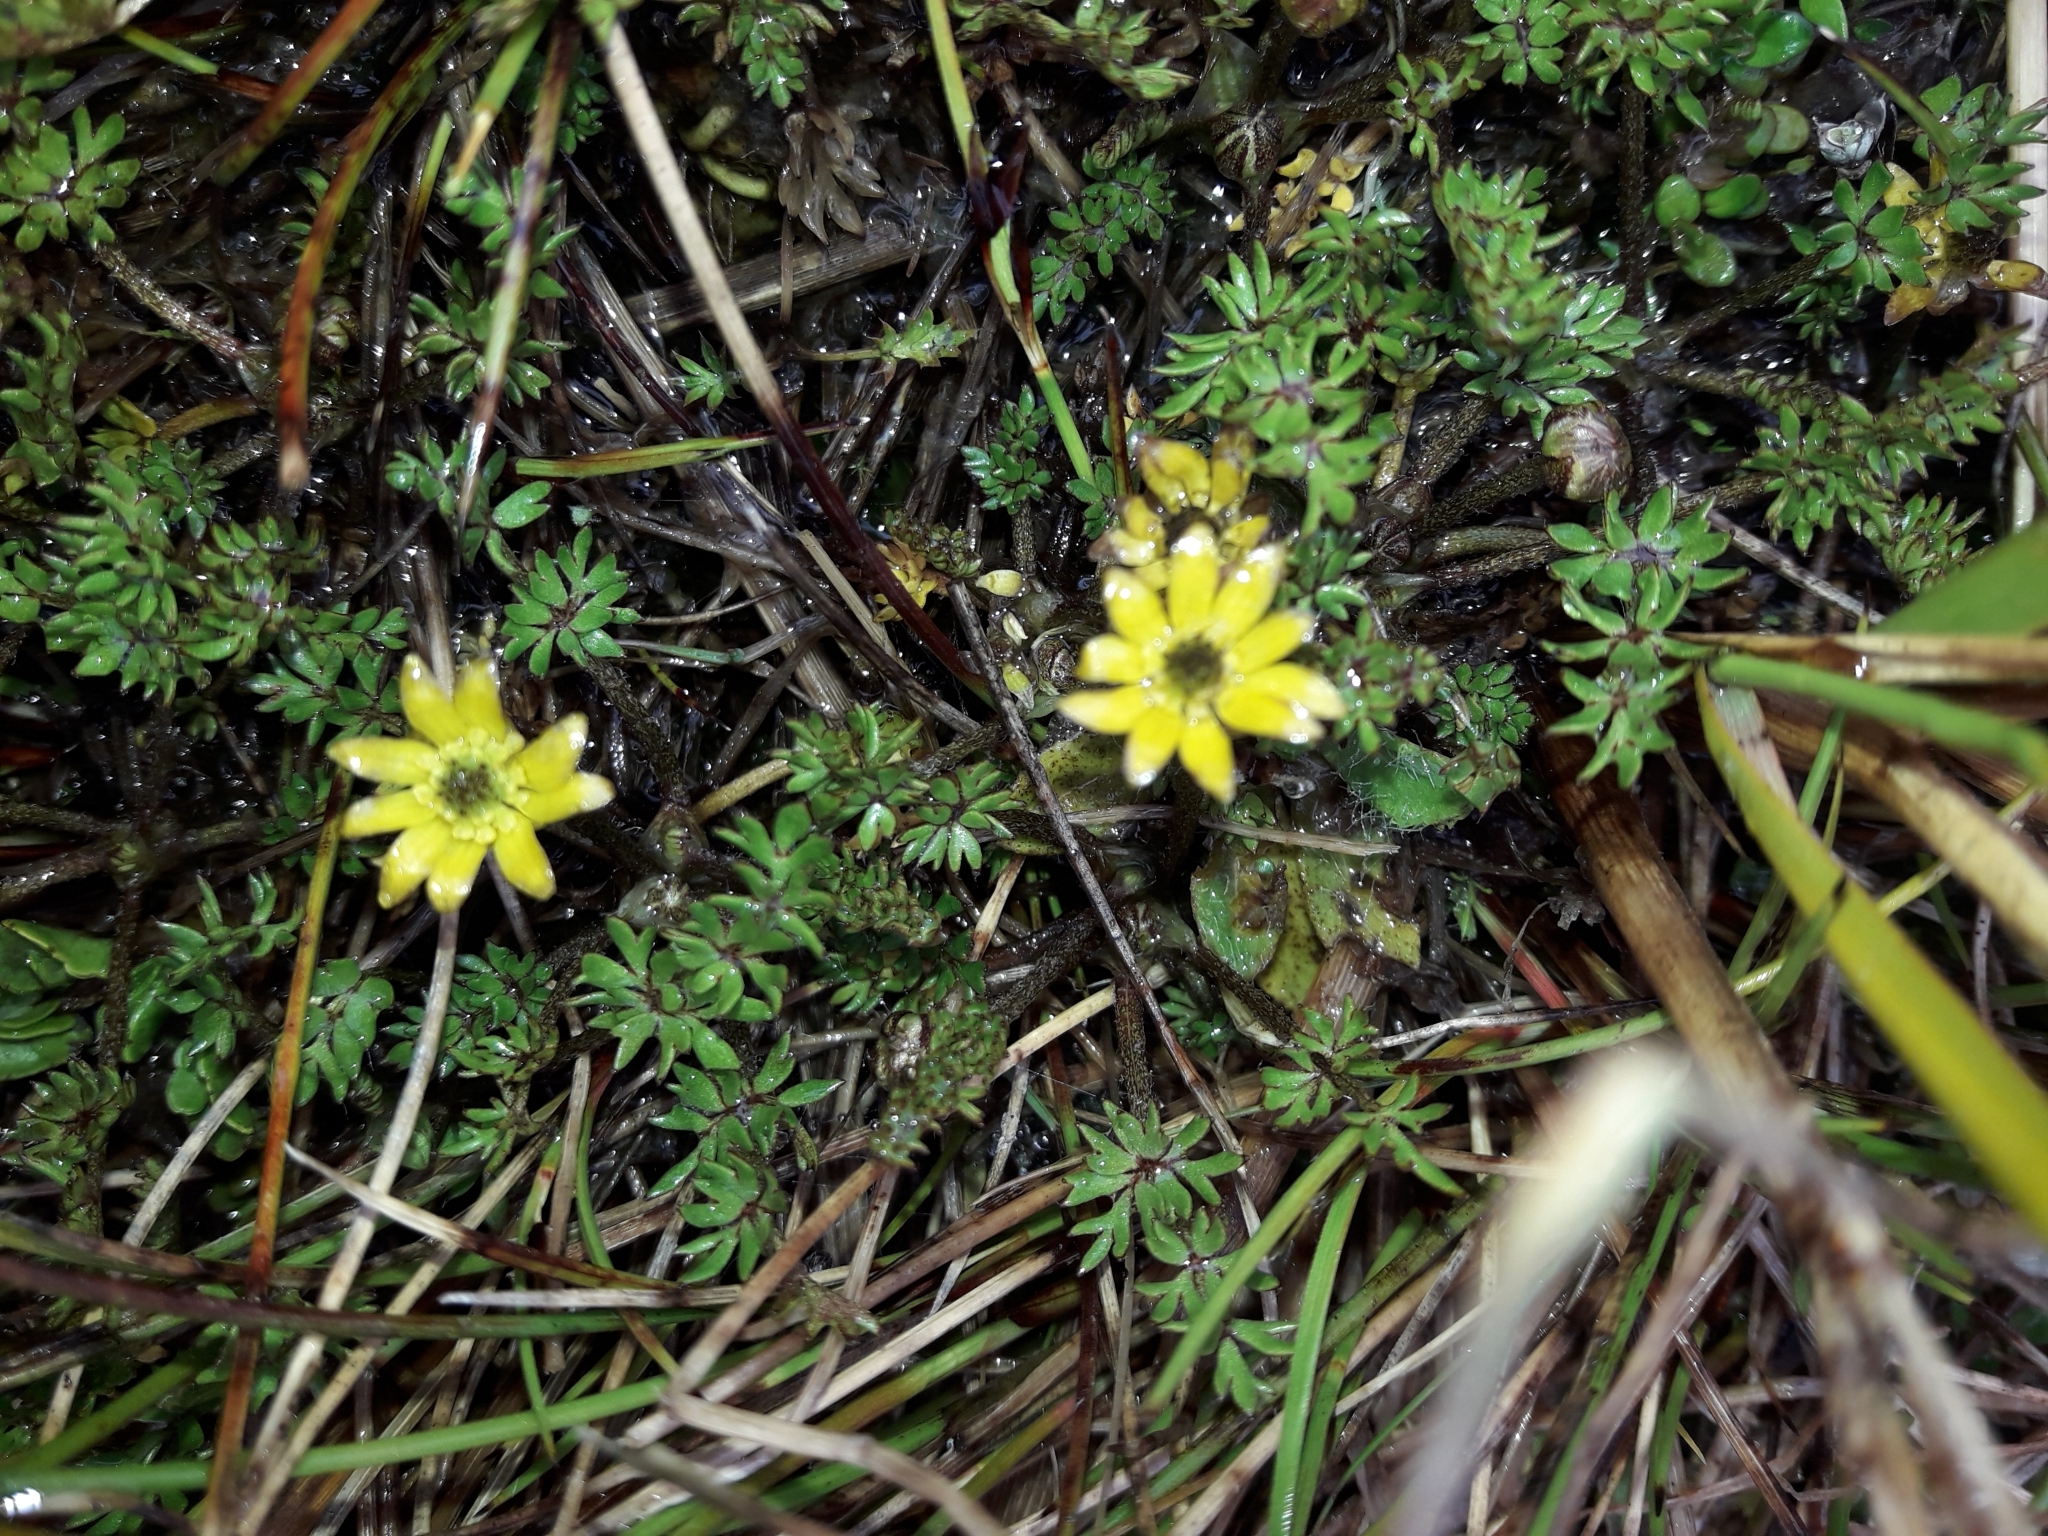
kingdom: Plantae
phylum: Tracheophyta
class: Magnoliopsida
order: Ranunculales
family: Ranunculaceae
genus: Ranunculus
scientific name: Ranunculus gracilipes
